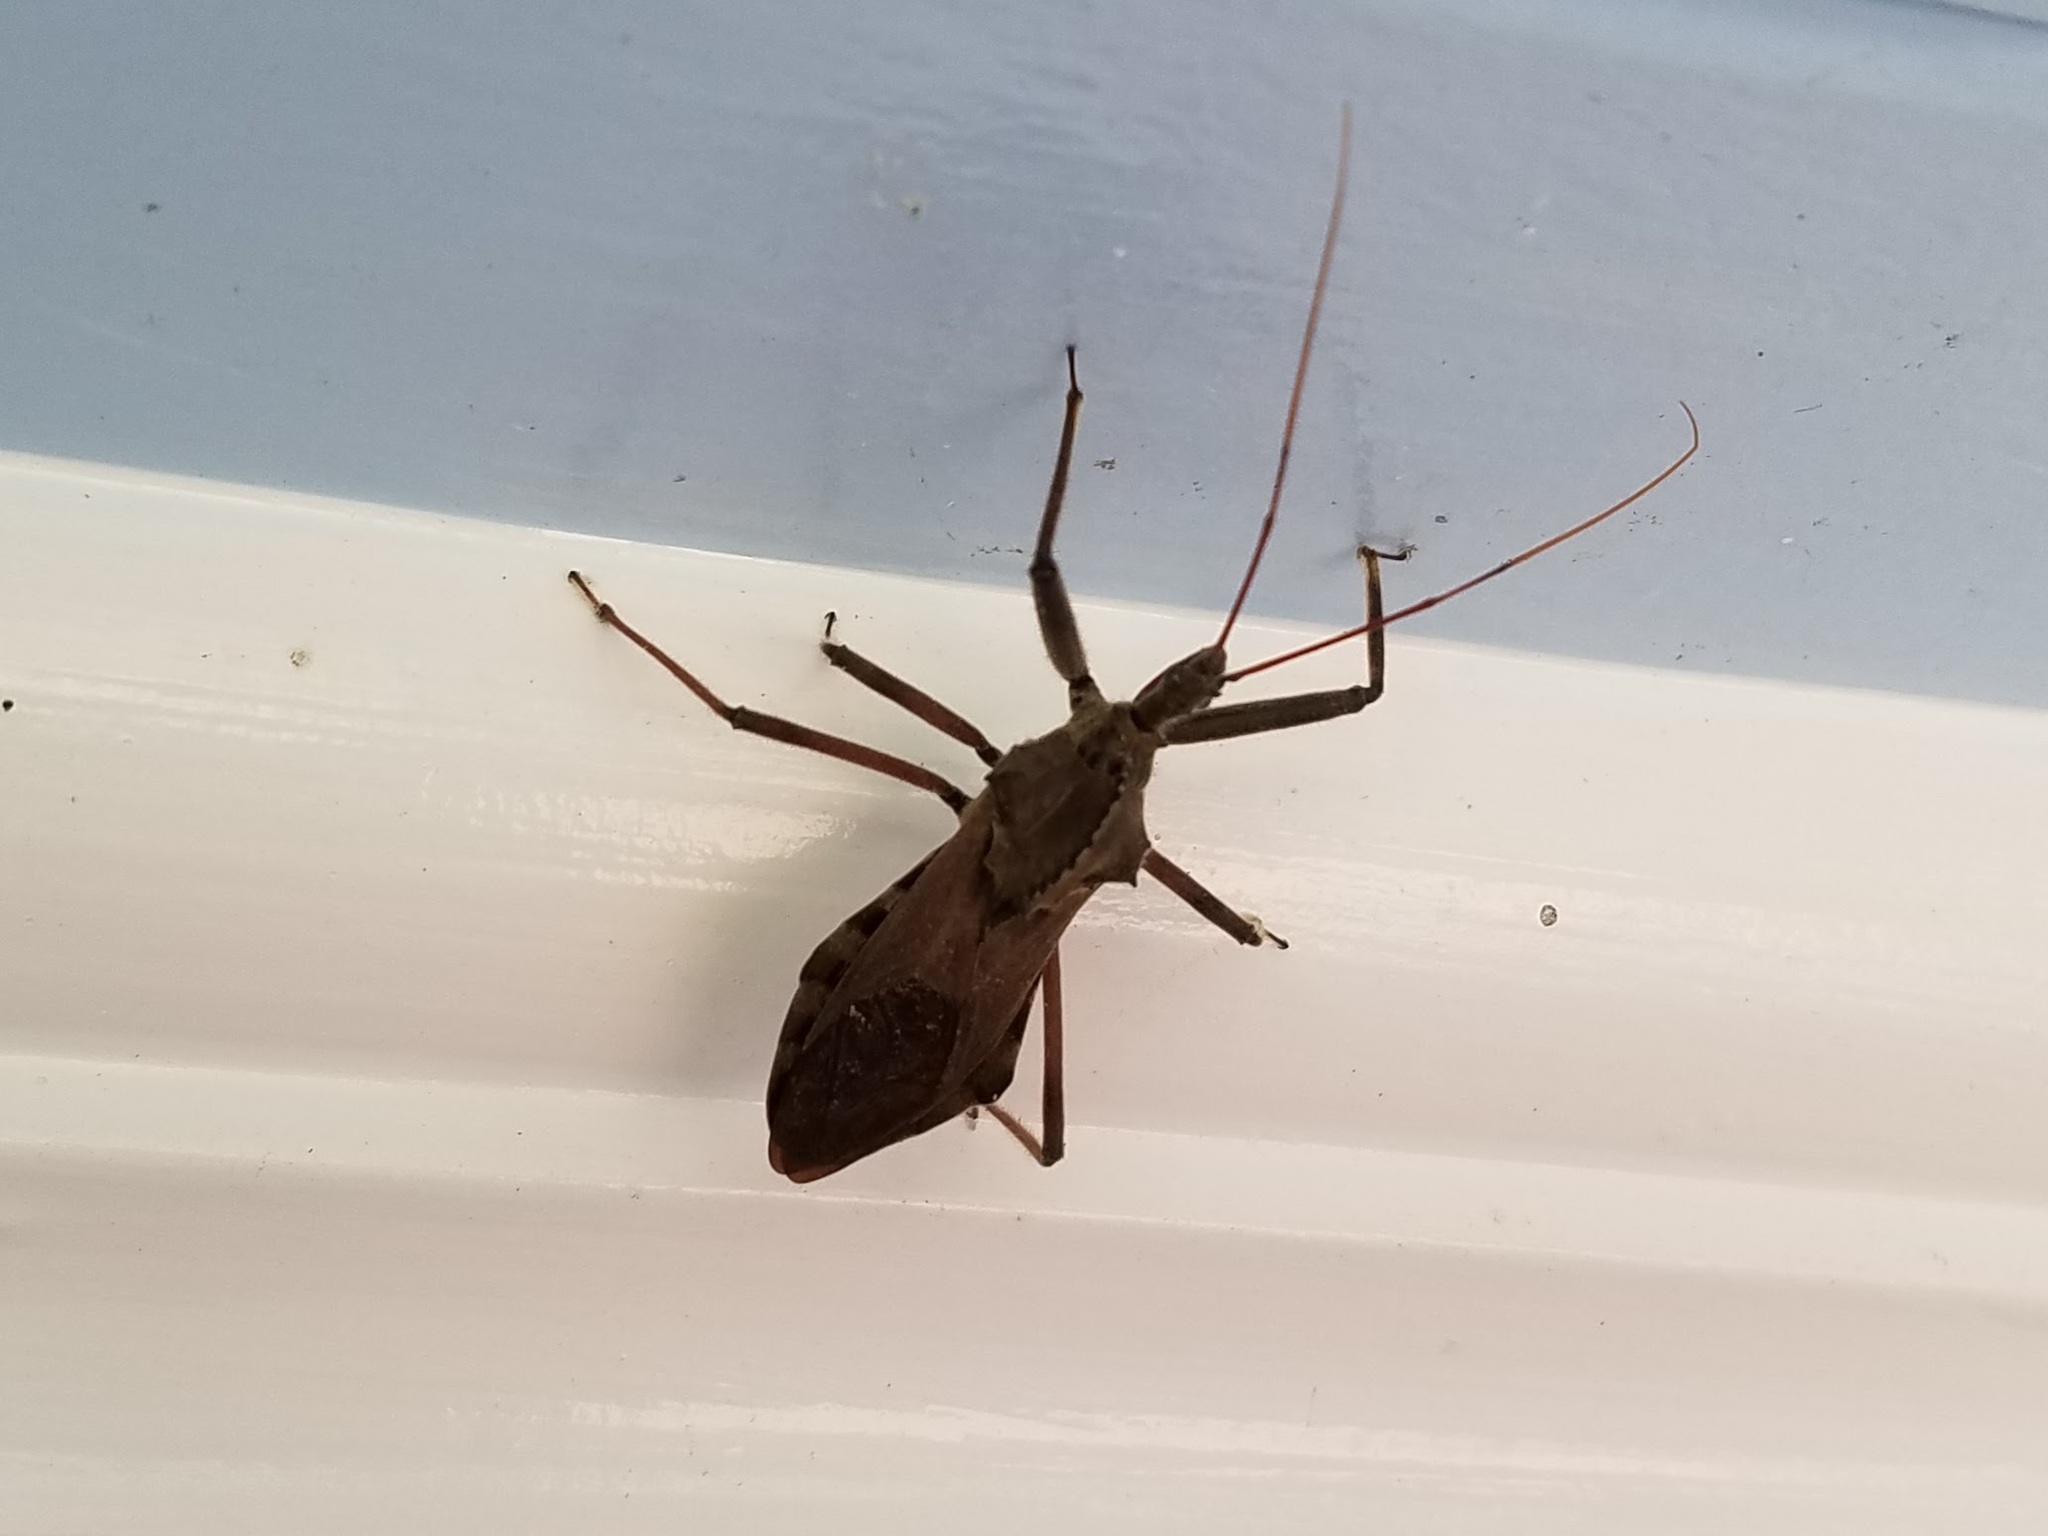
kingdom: Animalia
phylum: Arthropoda
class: Insecta
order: Hemiptera
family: Reduviidae
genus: Arilus
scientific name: Arilus cristatus
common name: North american wheel bug
